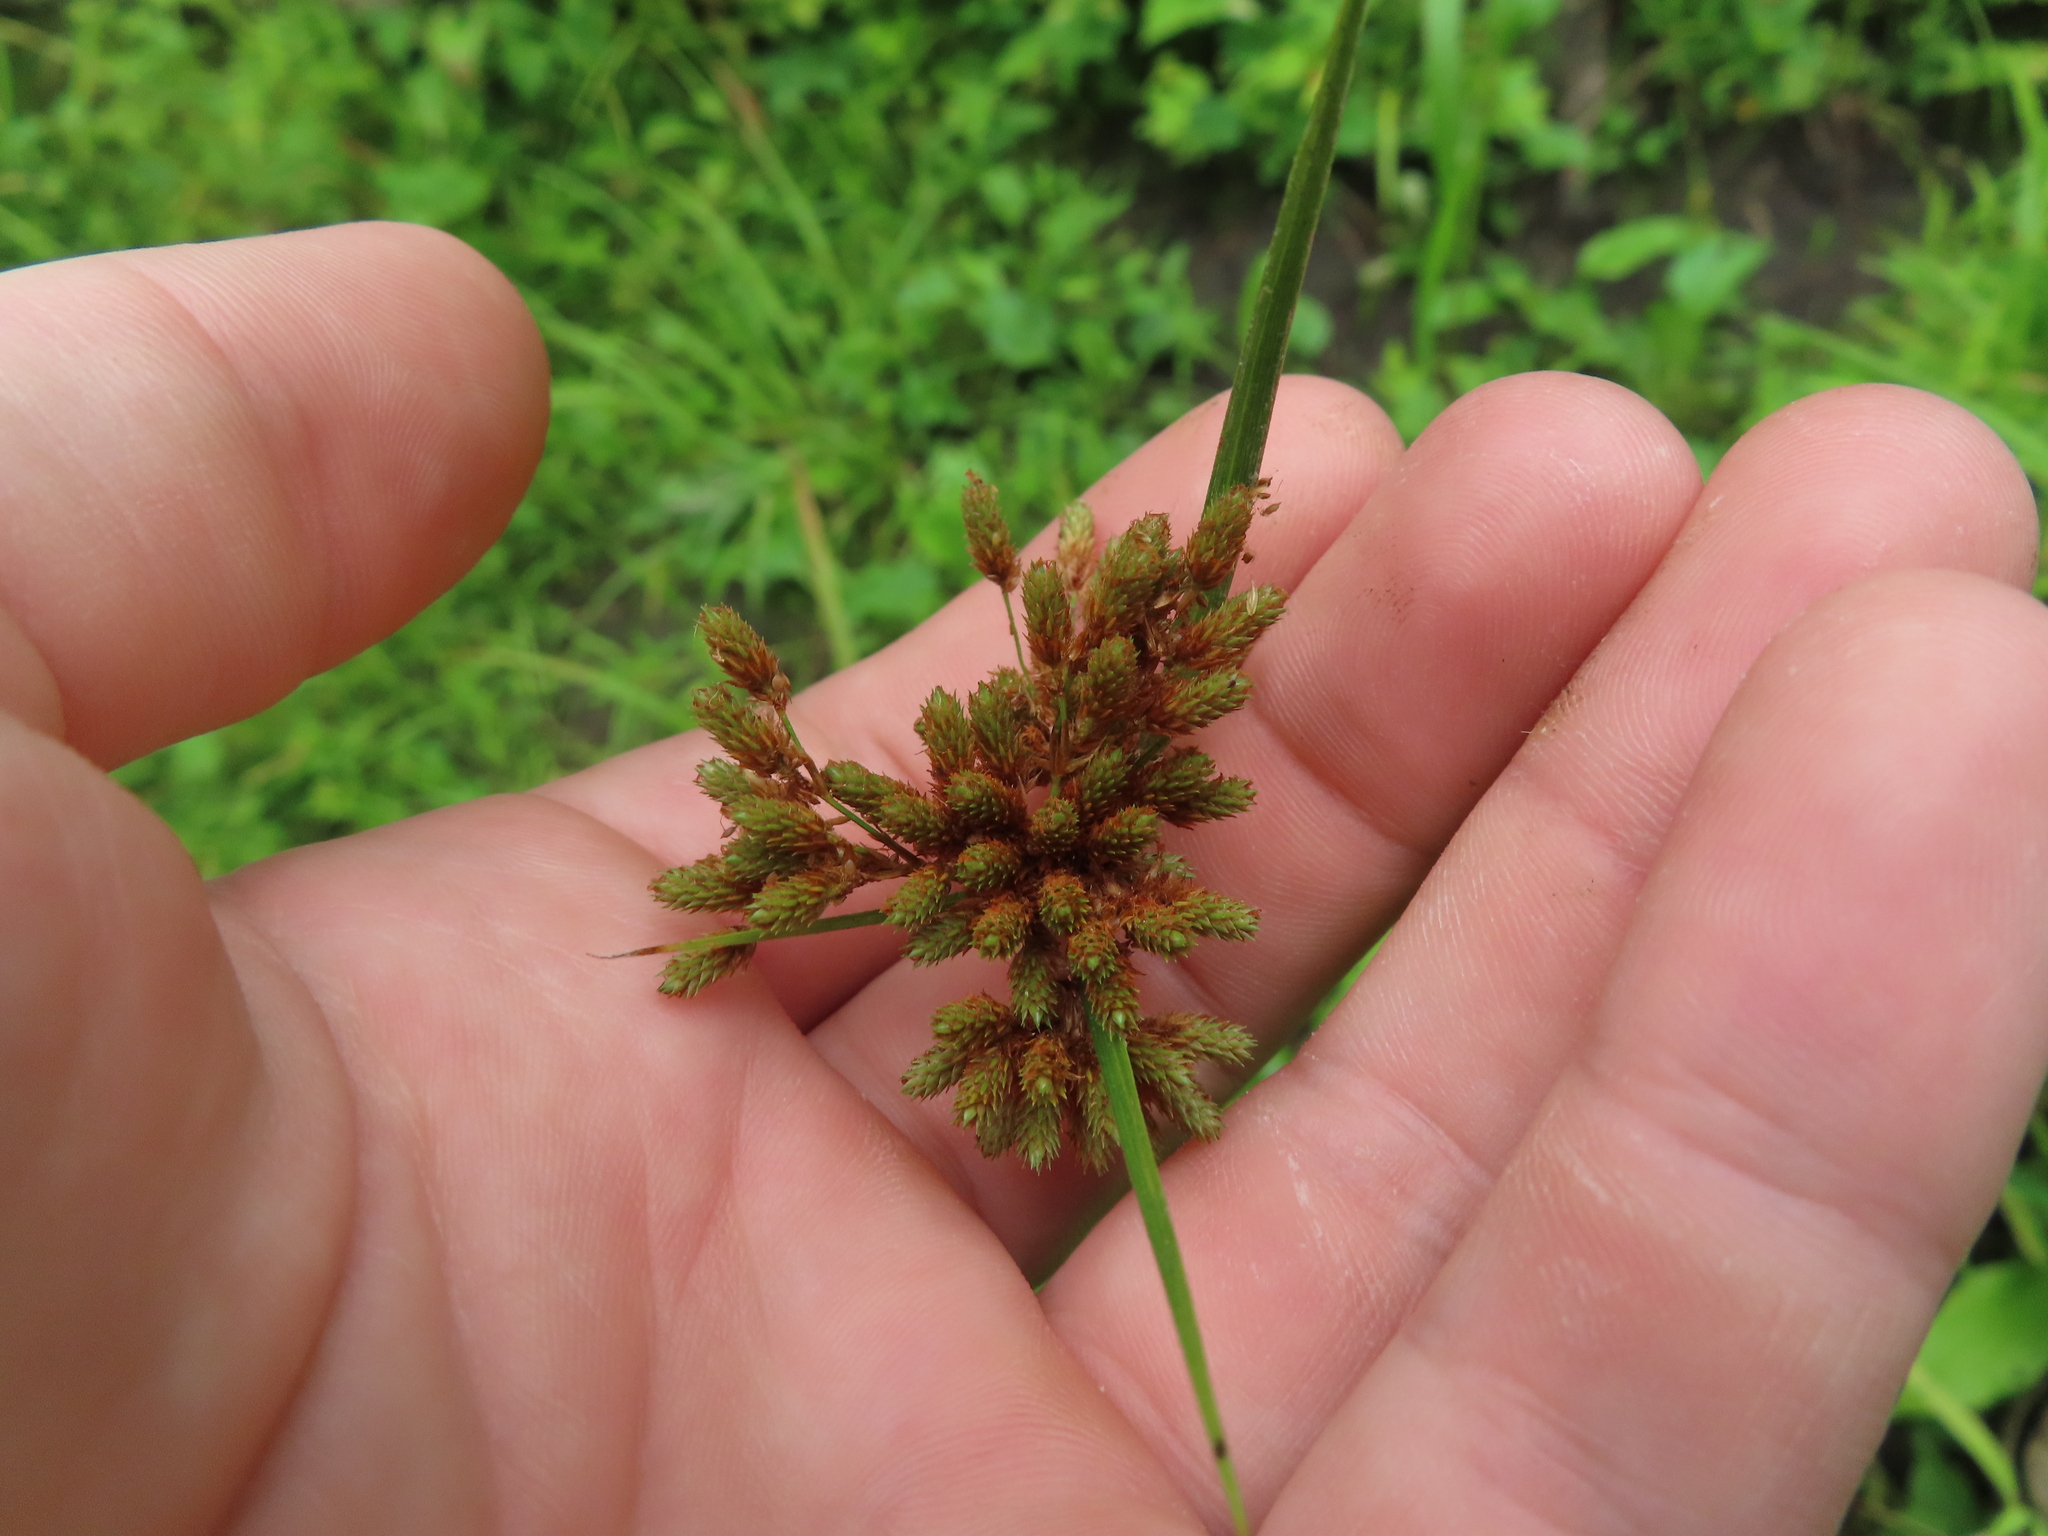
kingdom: Plantae
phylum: Tracheophyta
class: Liliopsida
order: Poales
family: Cyperaceae
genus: Scirpus
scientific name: Scirpus pendulus
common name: Nodding bulrush
